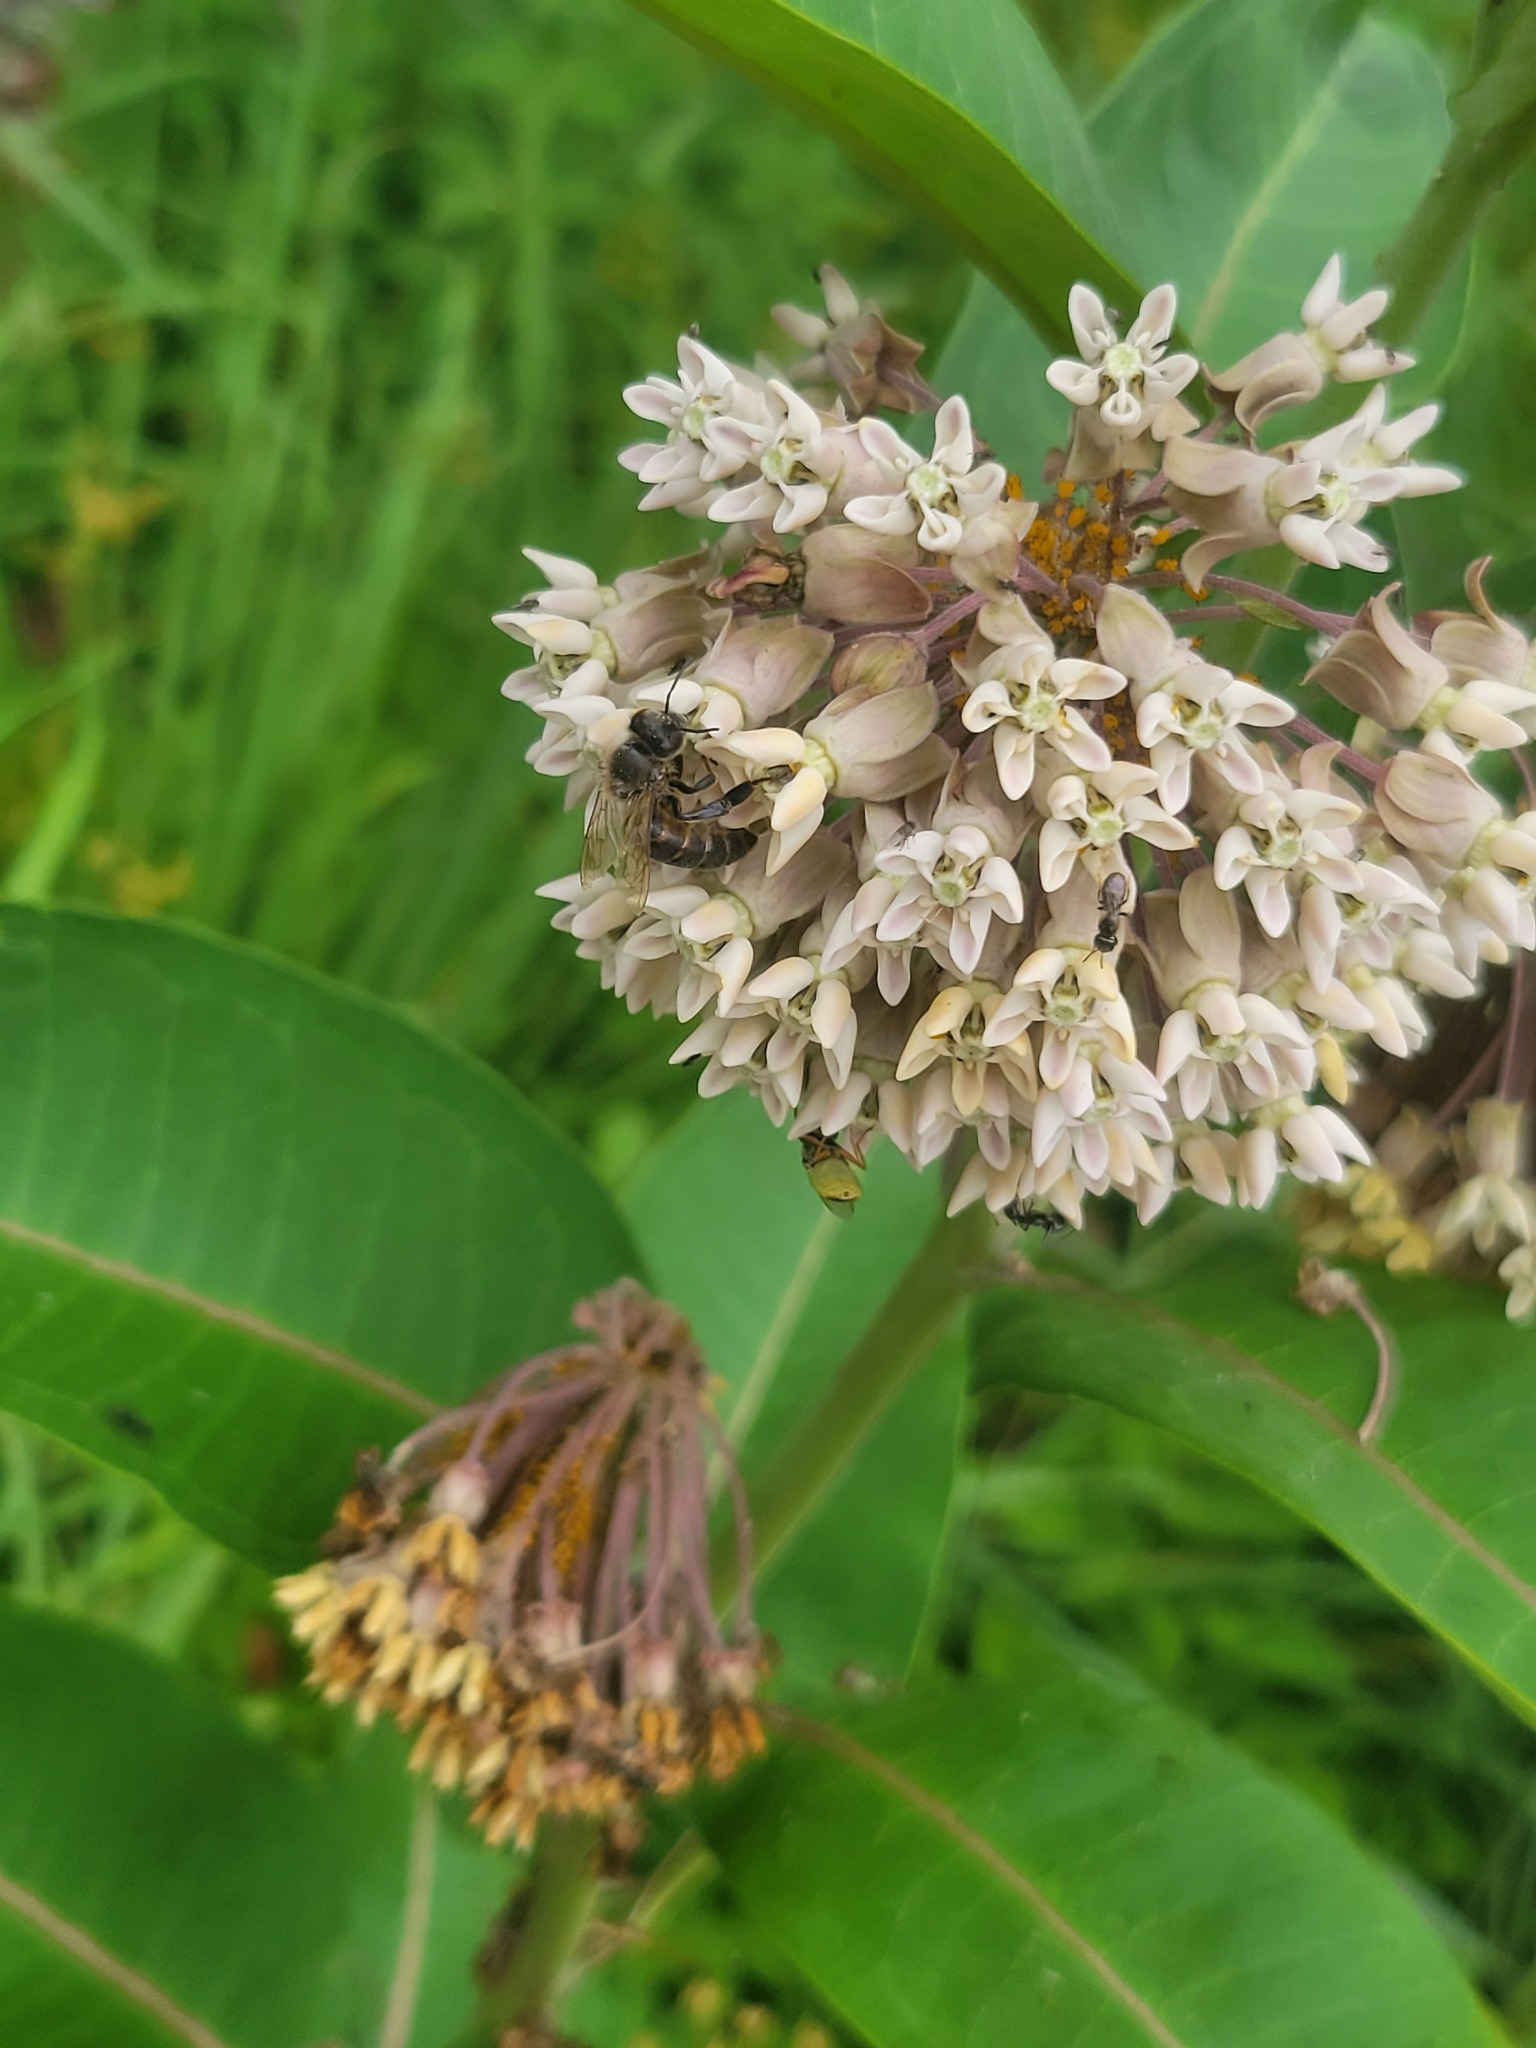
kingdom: Plantae
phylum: Tracheophyta
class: Magnoliopsida
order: Gentianales
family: Apocynaceae
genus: Asclepias
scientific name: Asclepias syriaca
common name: Common milkweed
